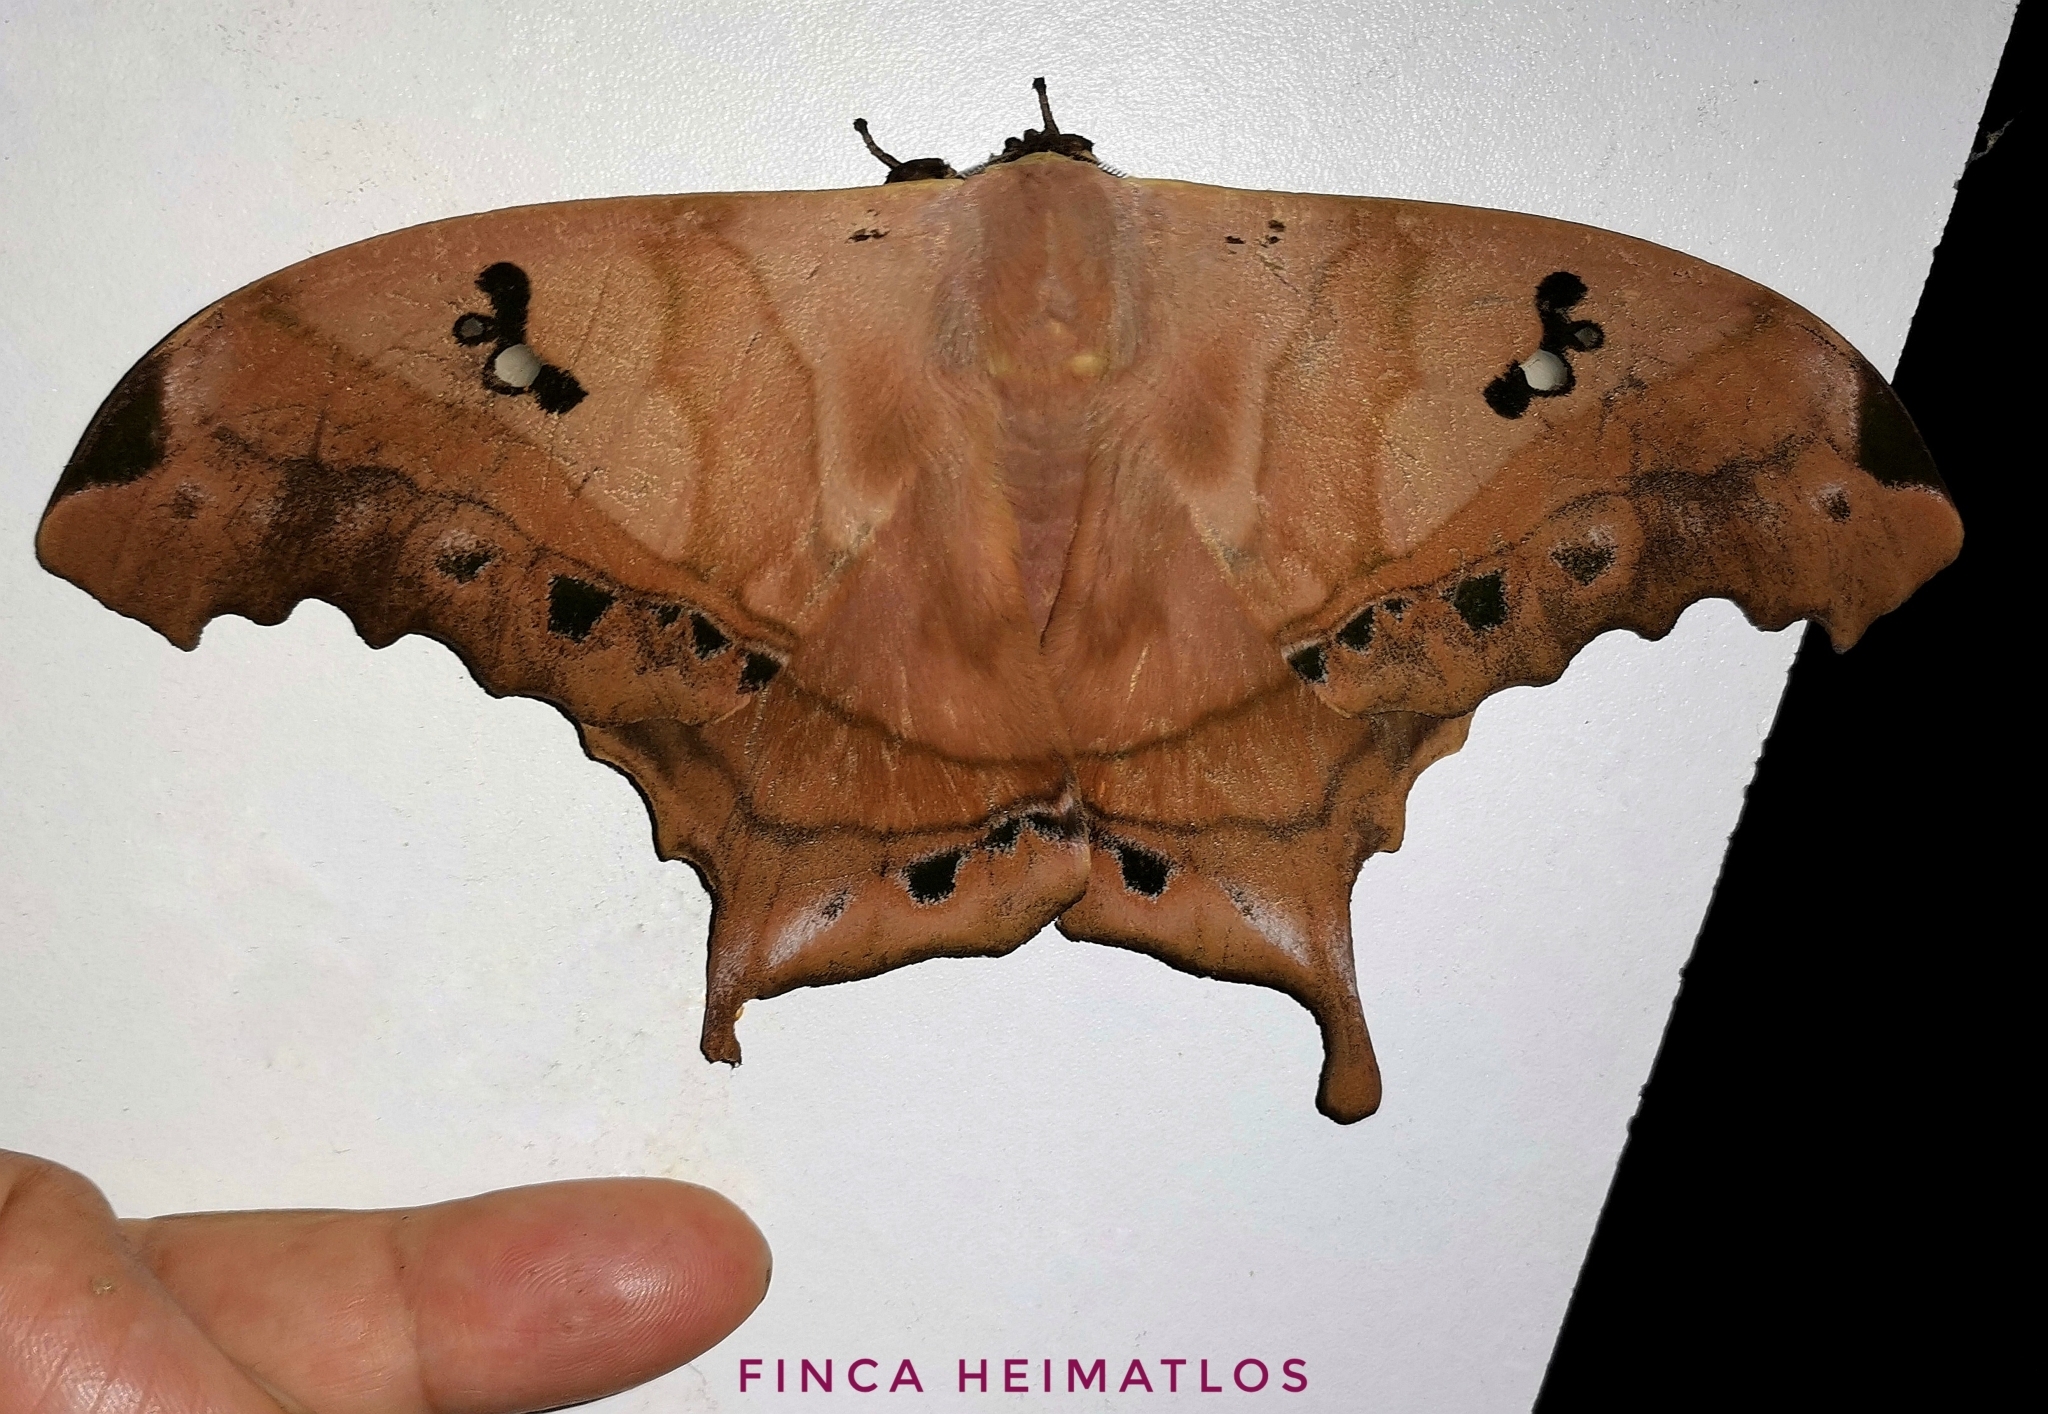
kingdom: Animalia
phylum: Arthropoda
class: Insecta
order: Lepidoptera
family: Saturniidae
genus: Titaea
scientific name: Titaea tamerlan
